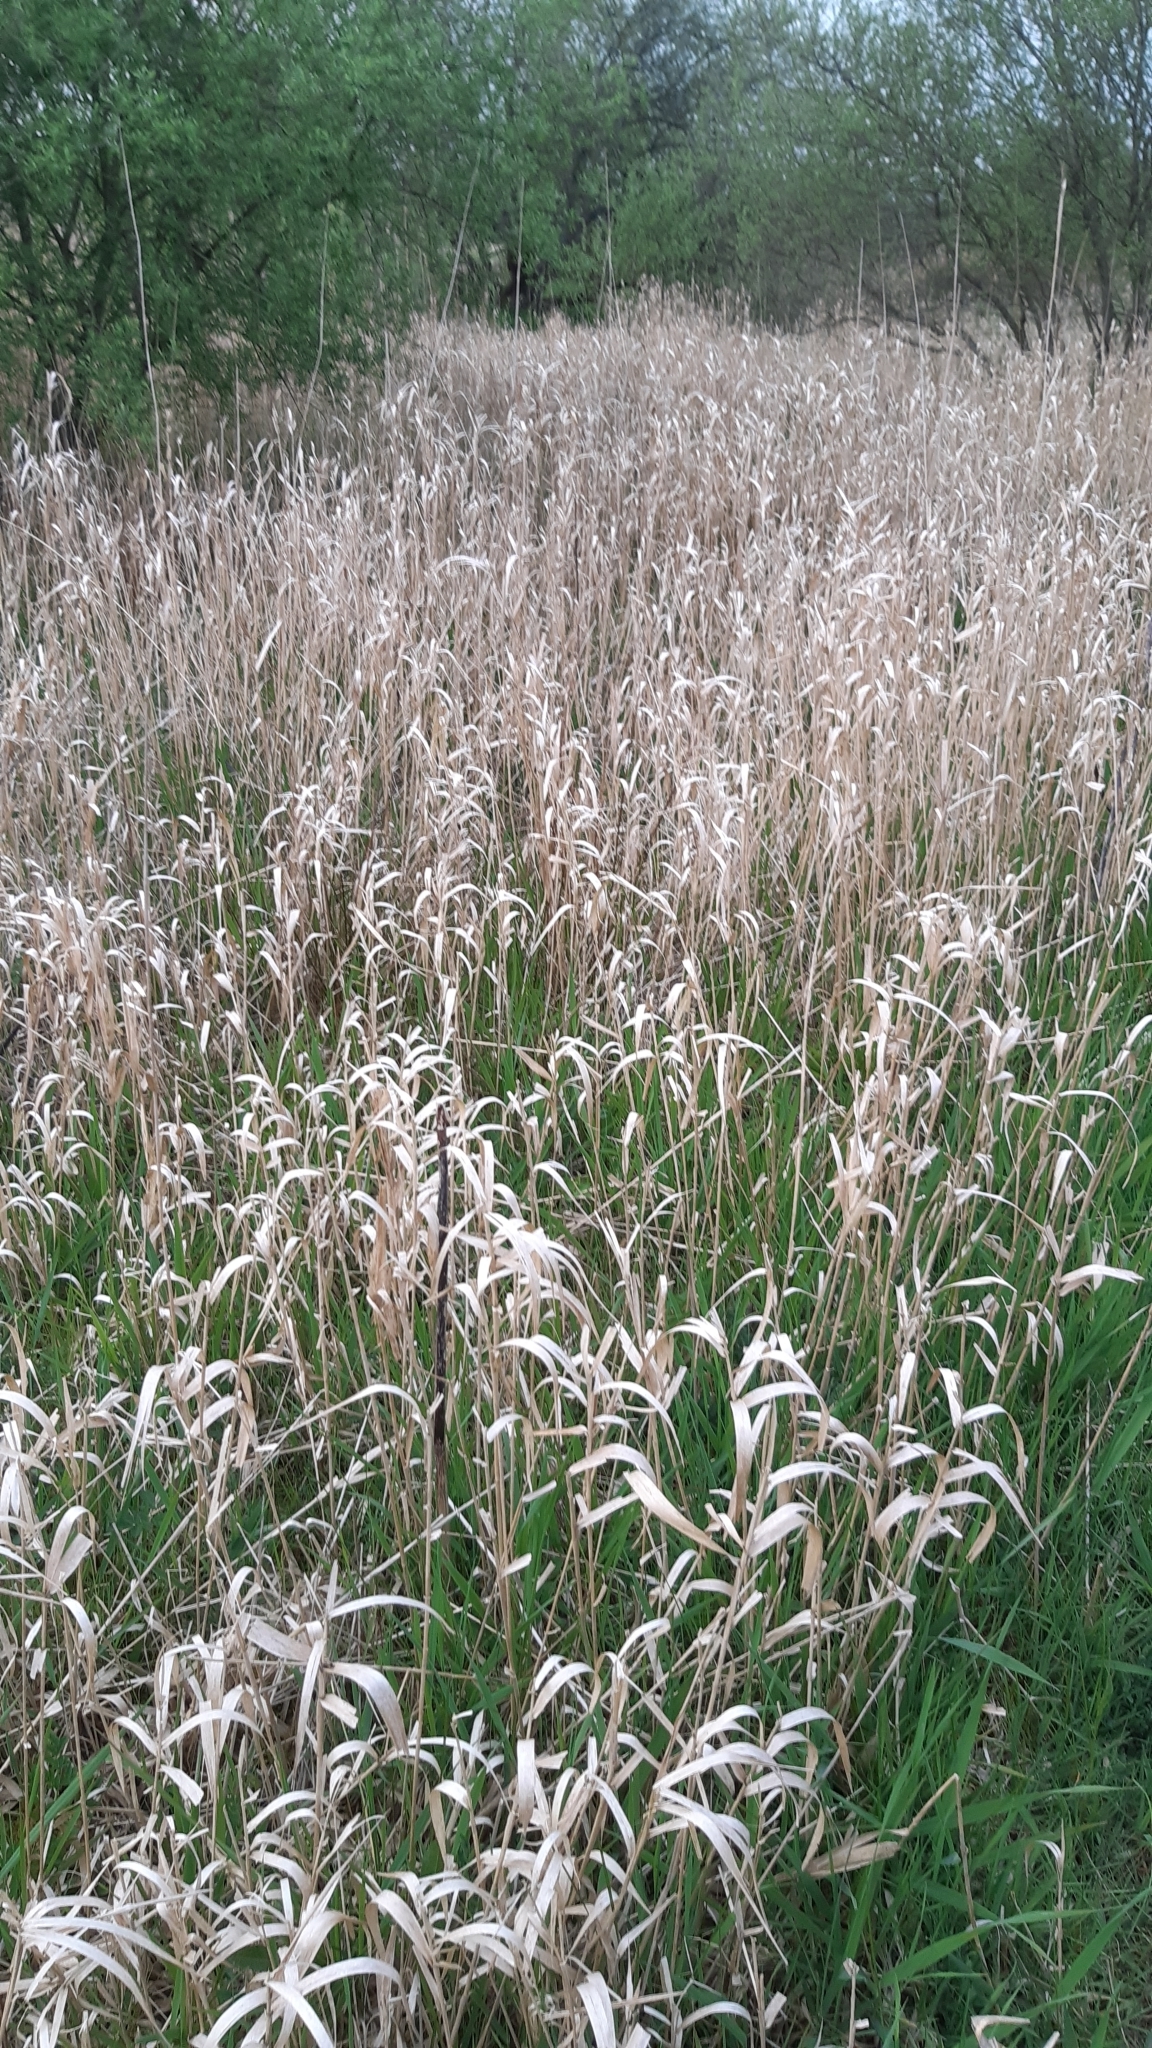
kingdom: Plantae
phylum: Tracheophyta
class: Liliopsida
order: Poales
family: Poaceae
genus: Phalaris
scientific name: Phalaris arundinacea
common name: Reed canary-grass
